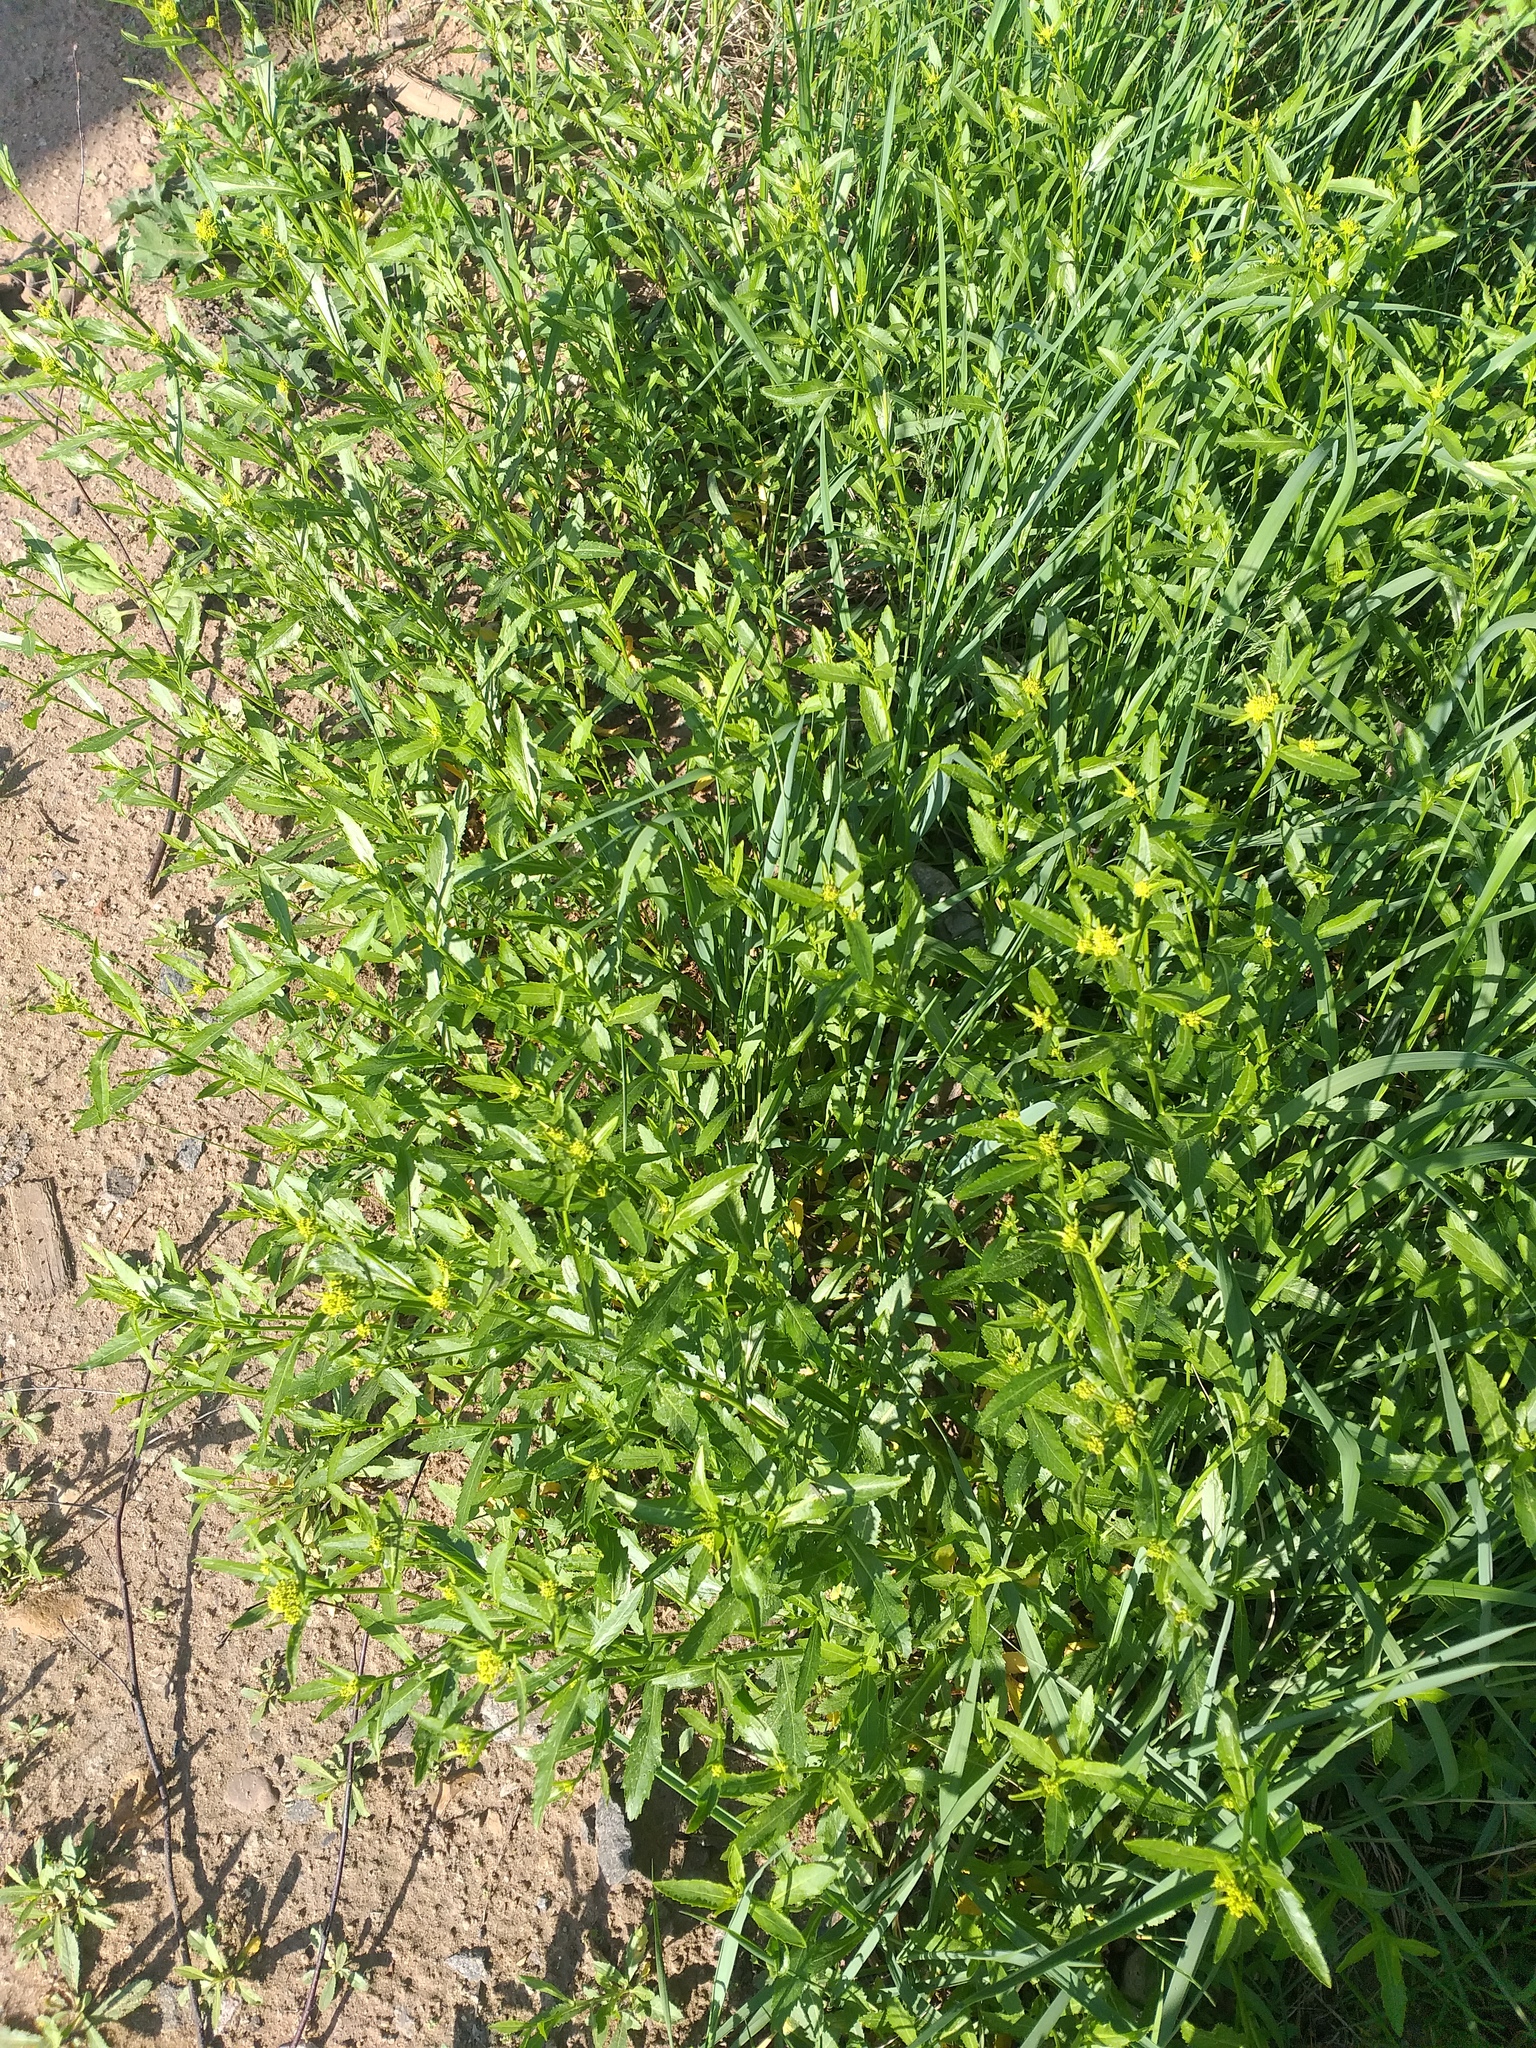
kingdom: Plantae
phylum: Tracheophyta
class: Magnoliopsida
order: Brassicales
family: Brassicaceae
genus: Rorippa
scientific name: Rorippa austriaca
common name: Austrian yellow-cress
